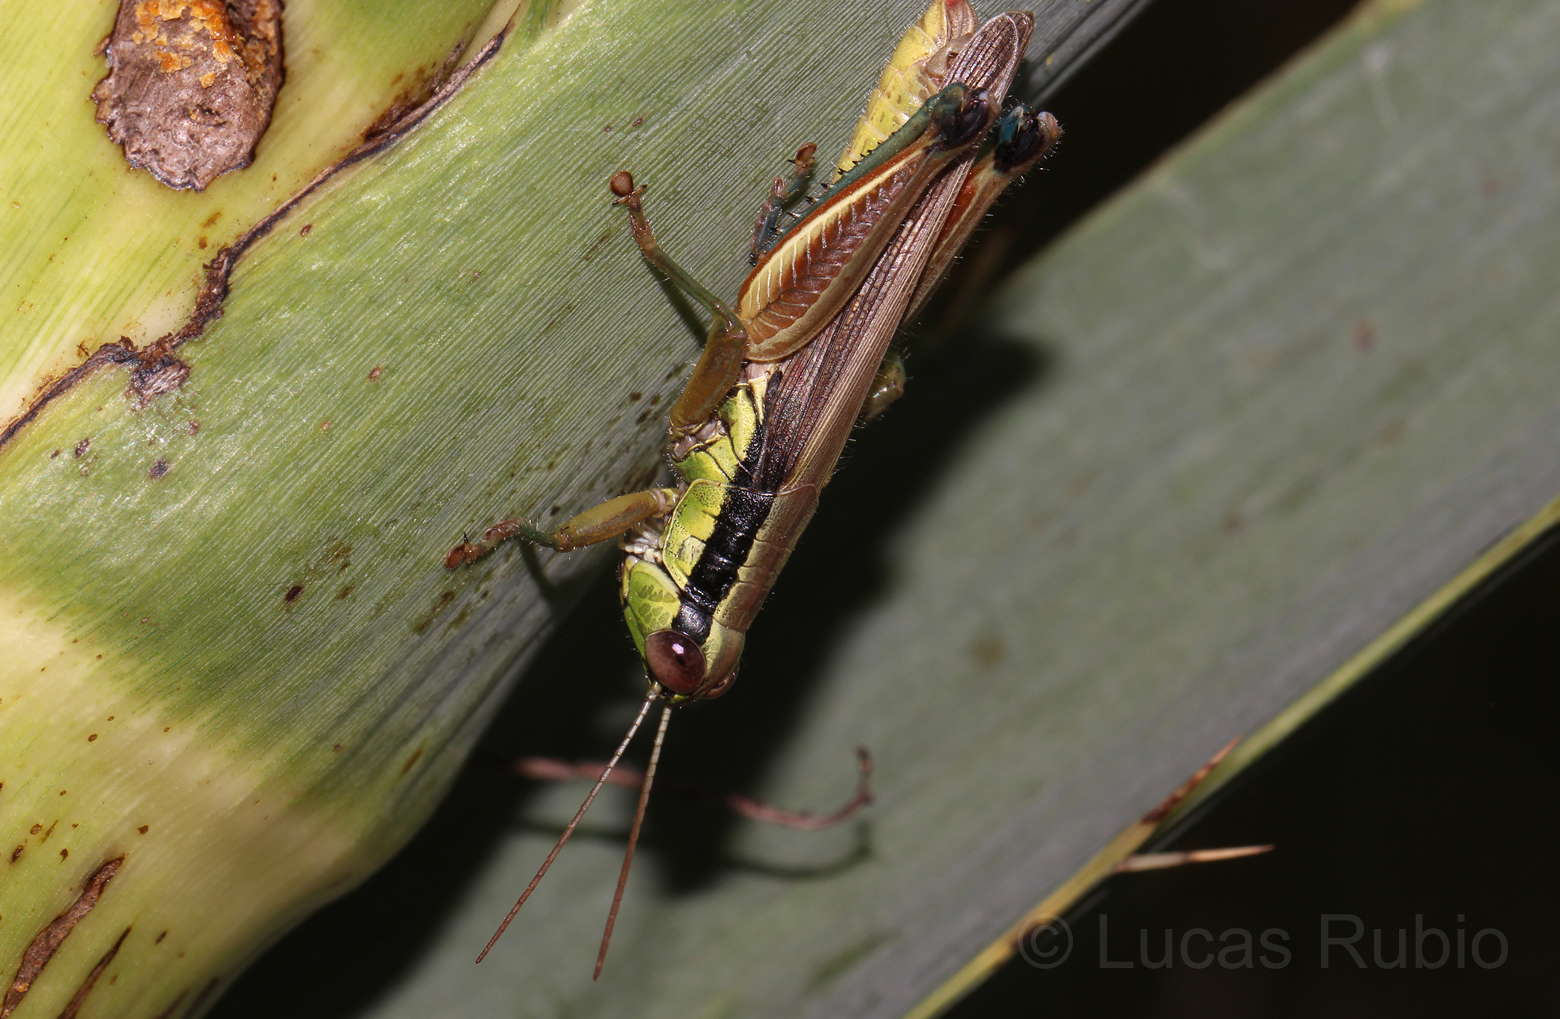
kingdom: Animalia
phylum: Arthropoda
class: Insecta
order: Orthoptera
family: Acrididae
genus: Scotussa
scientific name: Scotussa impudica
